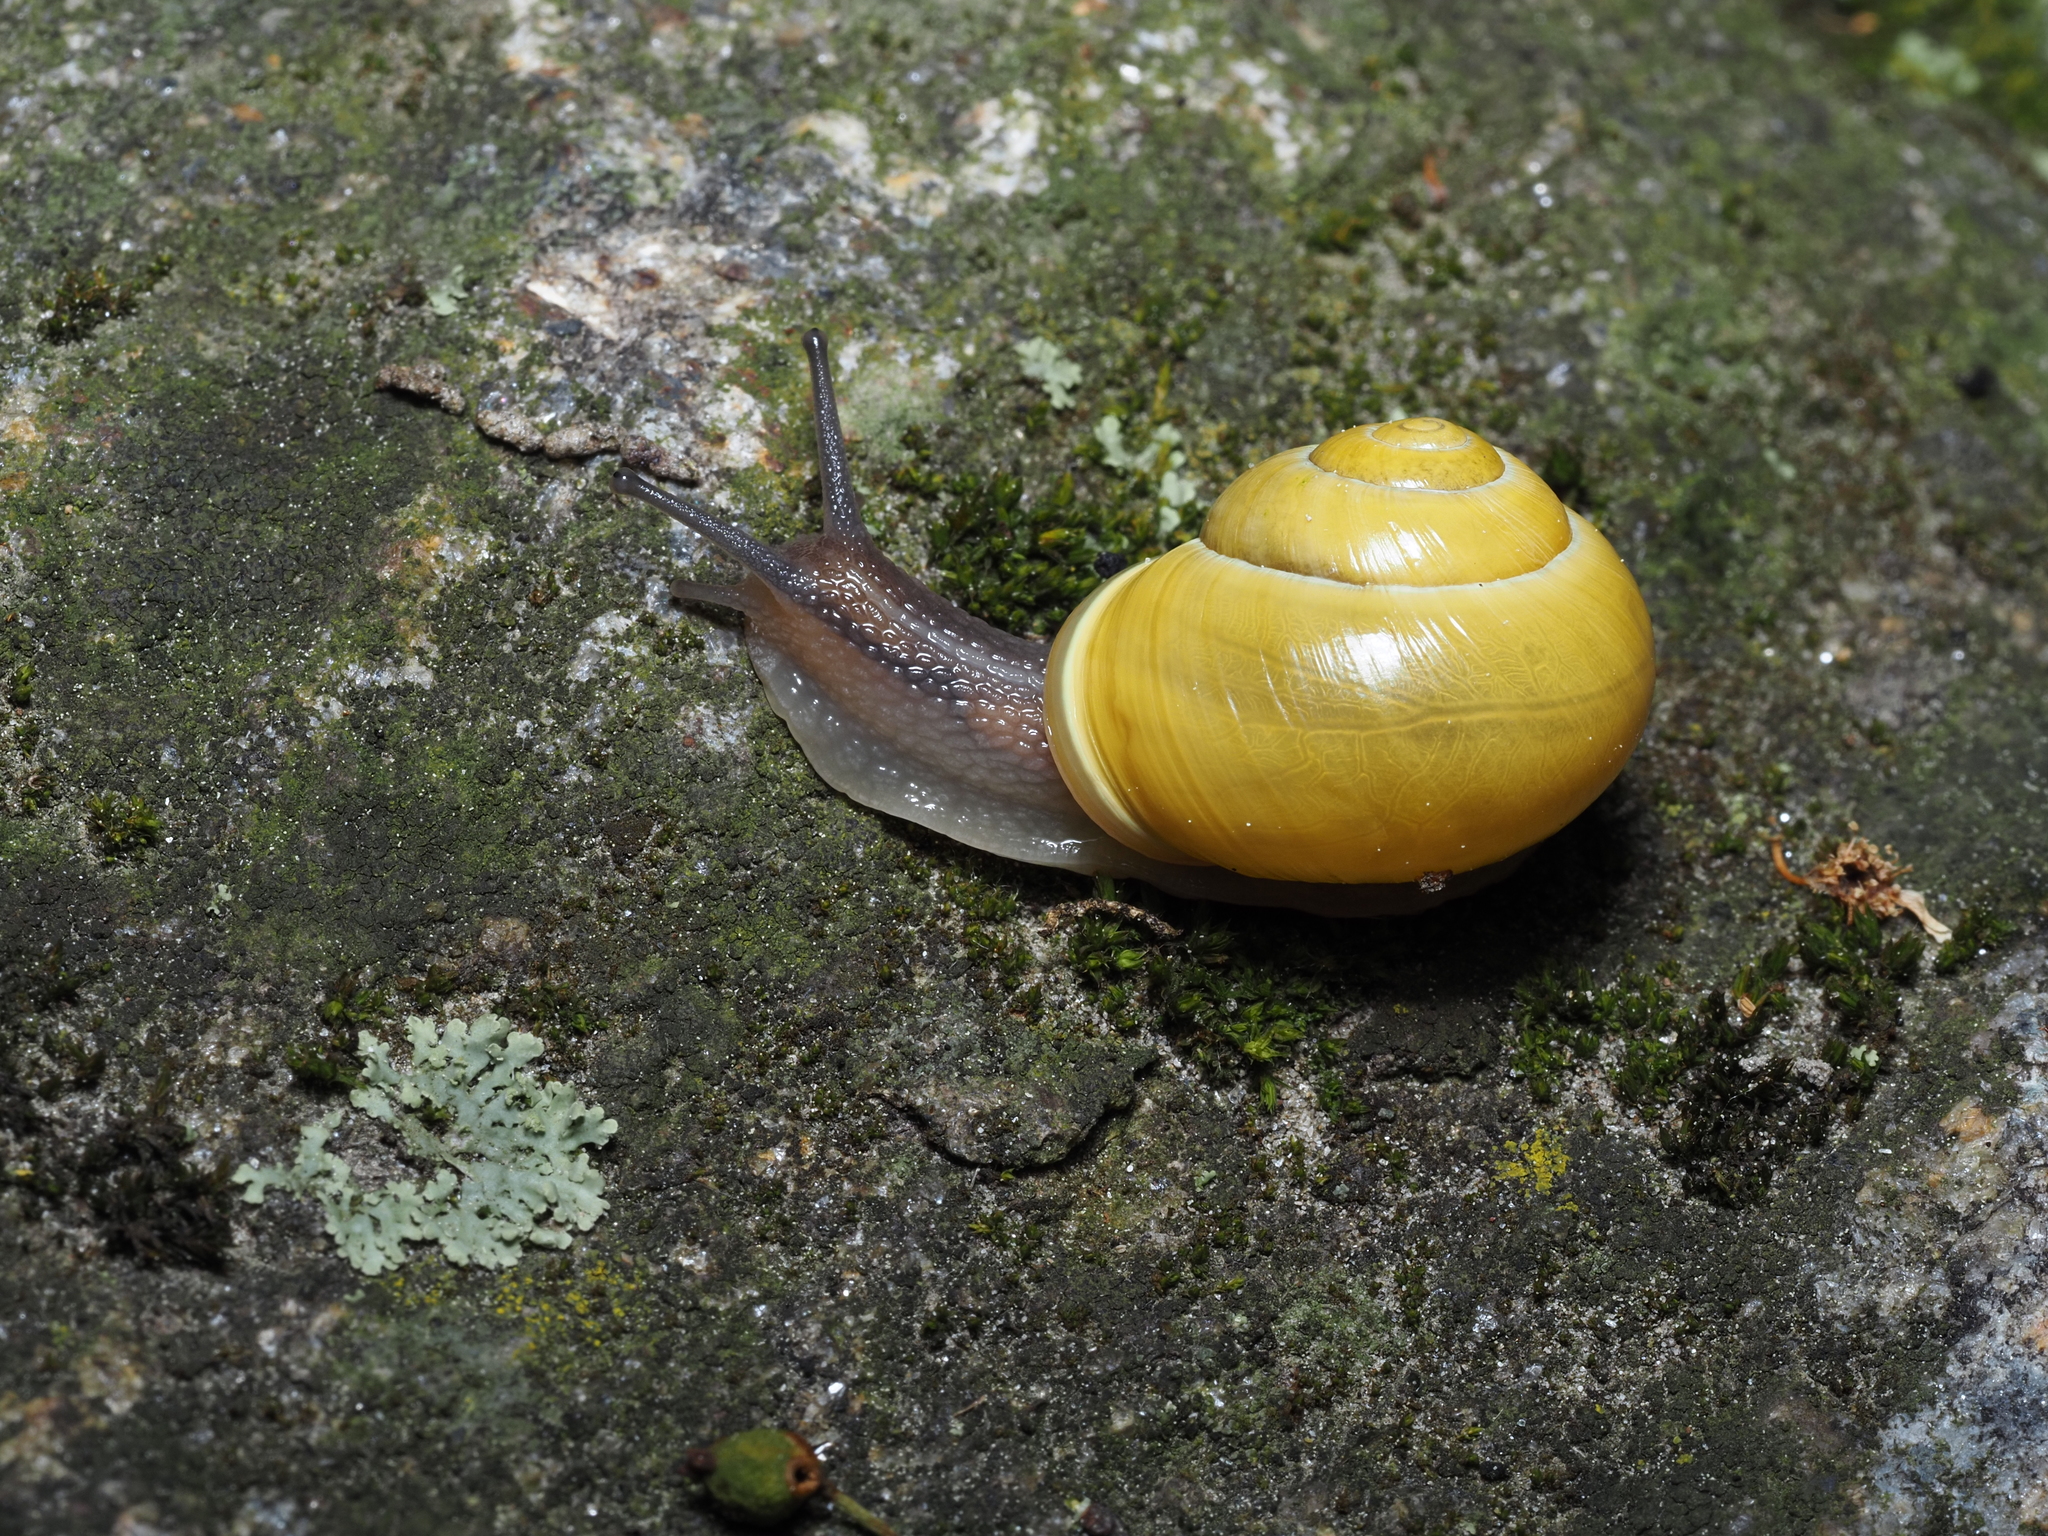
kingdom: Animalia
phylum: Mollusca
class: Gastropoda
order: Stylommatophora
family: Helicidae
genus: Cepaea
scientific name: Cepaea hortensis
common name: White-lip gardensnail
